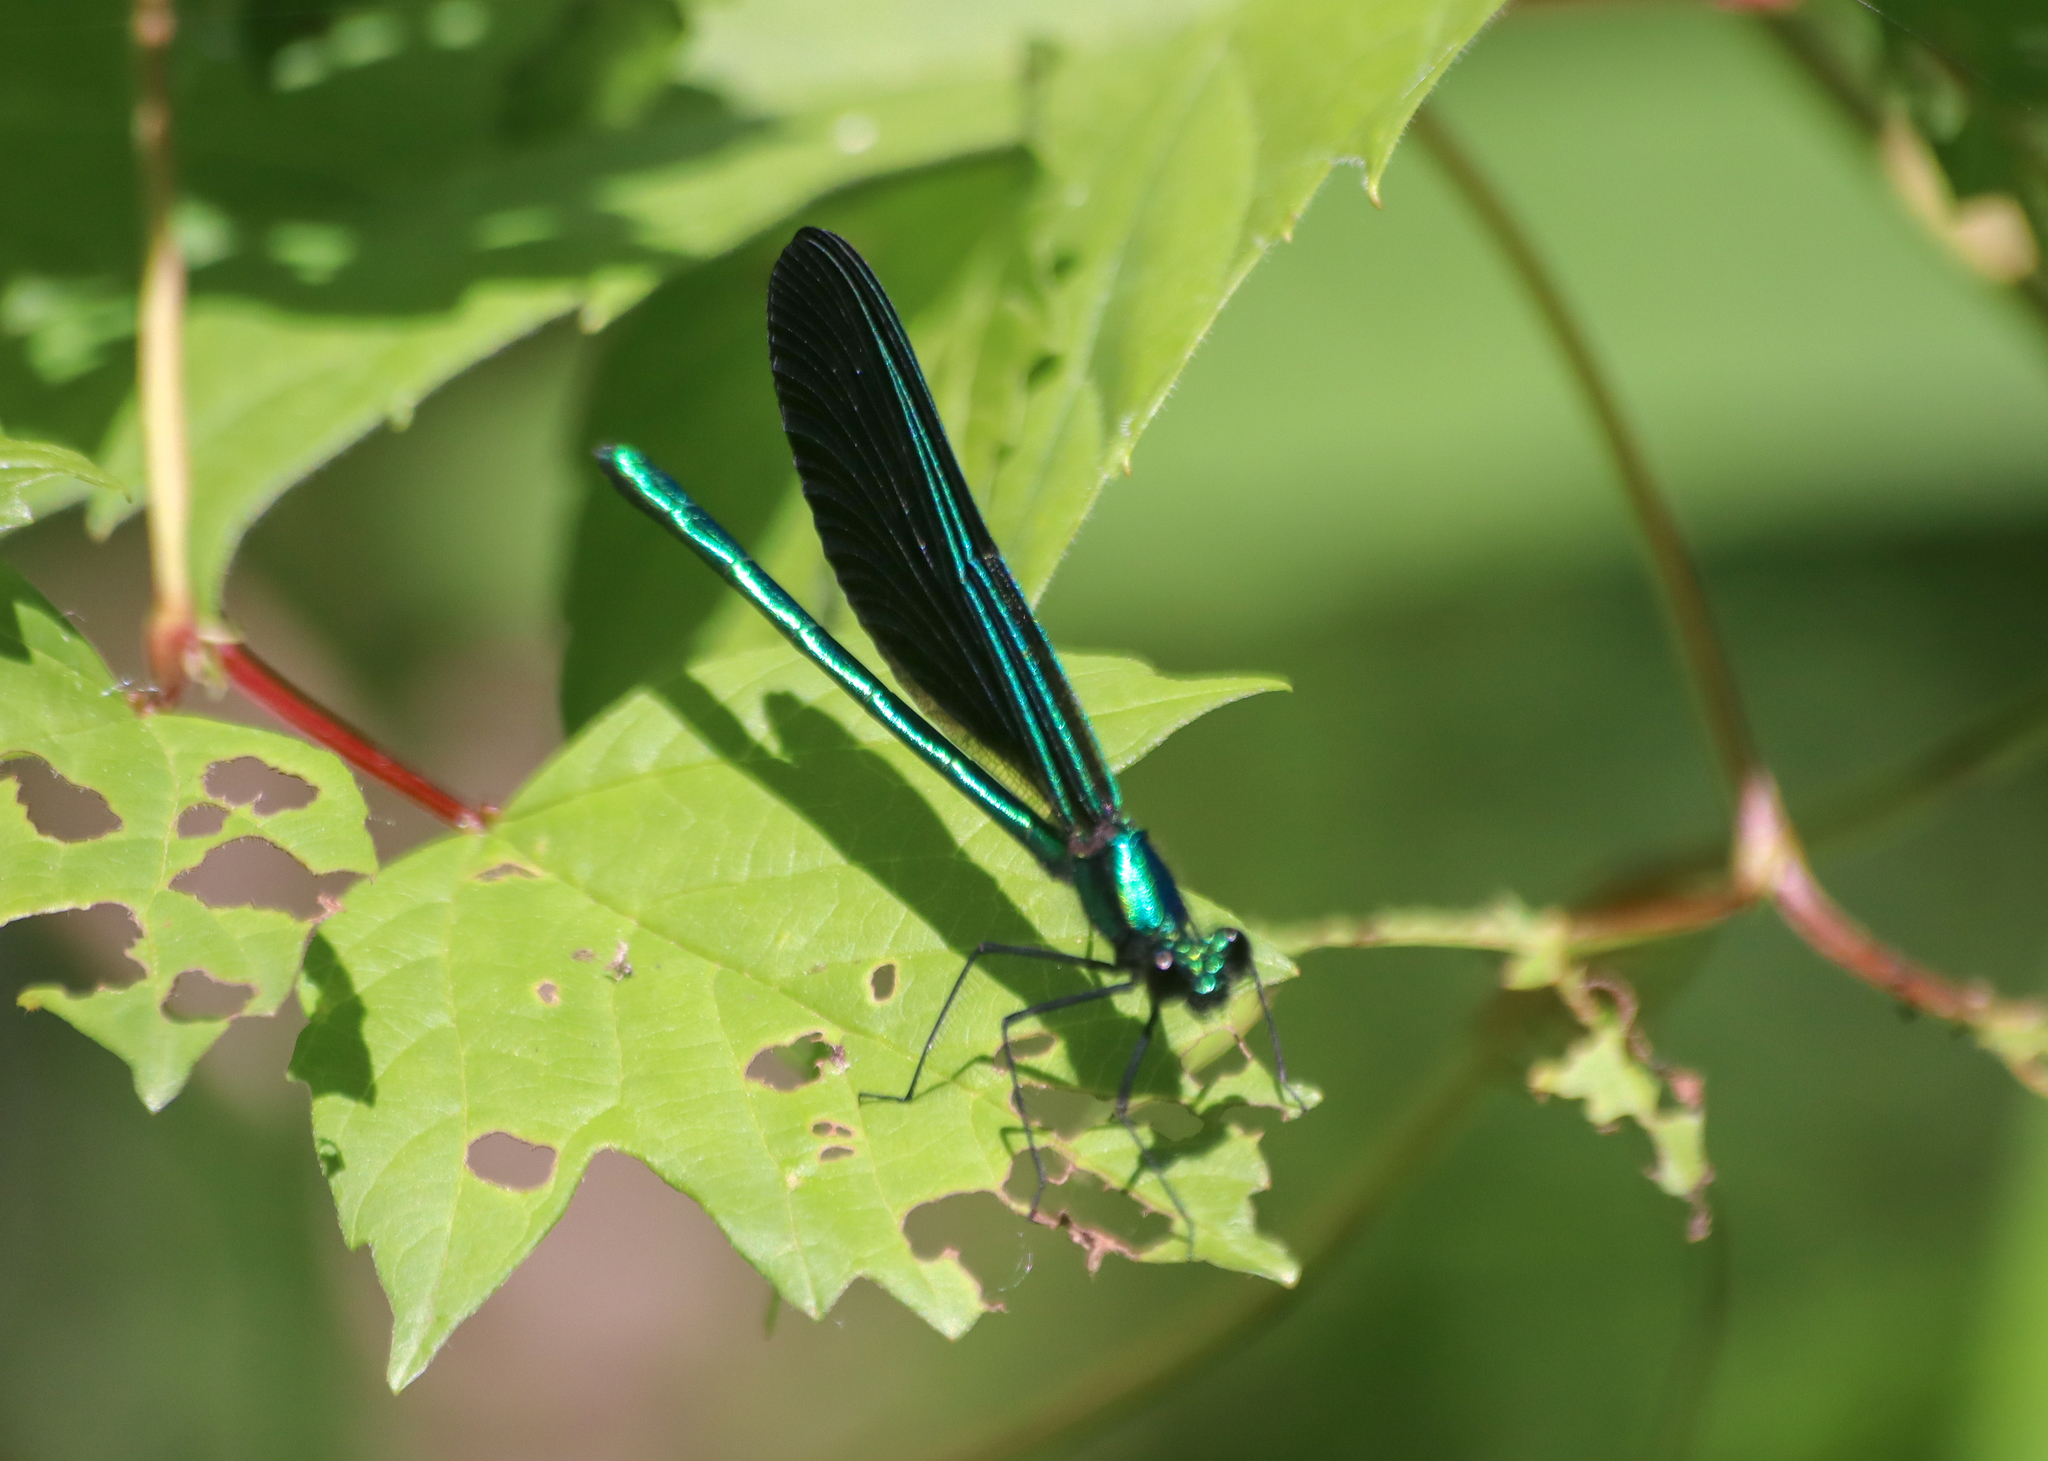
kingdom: Animalia
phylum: Arthropoda
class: Insecta
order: Odonata
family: Calopterygidae
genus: Calopteryx
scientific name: Calopteryx maculata
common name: Ebony jewelwing
